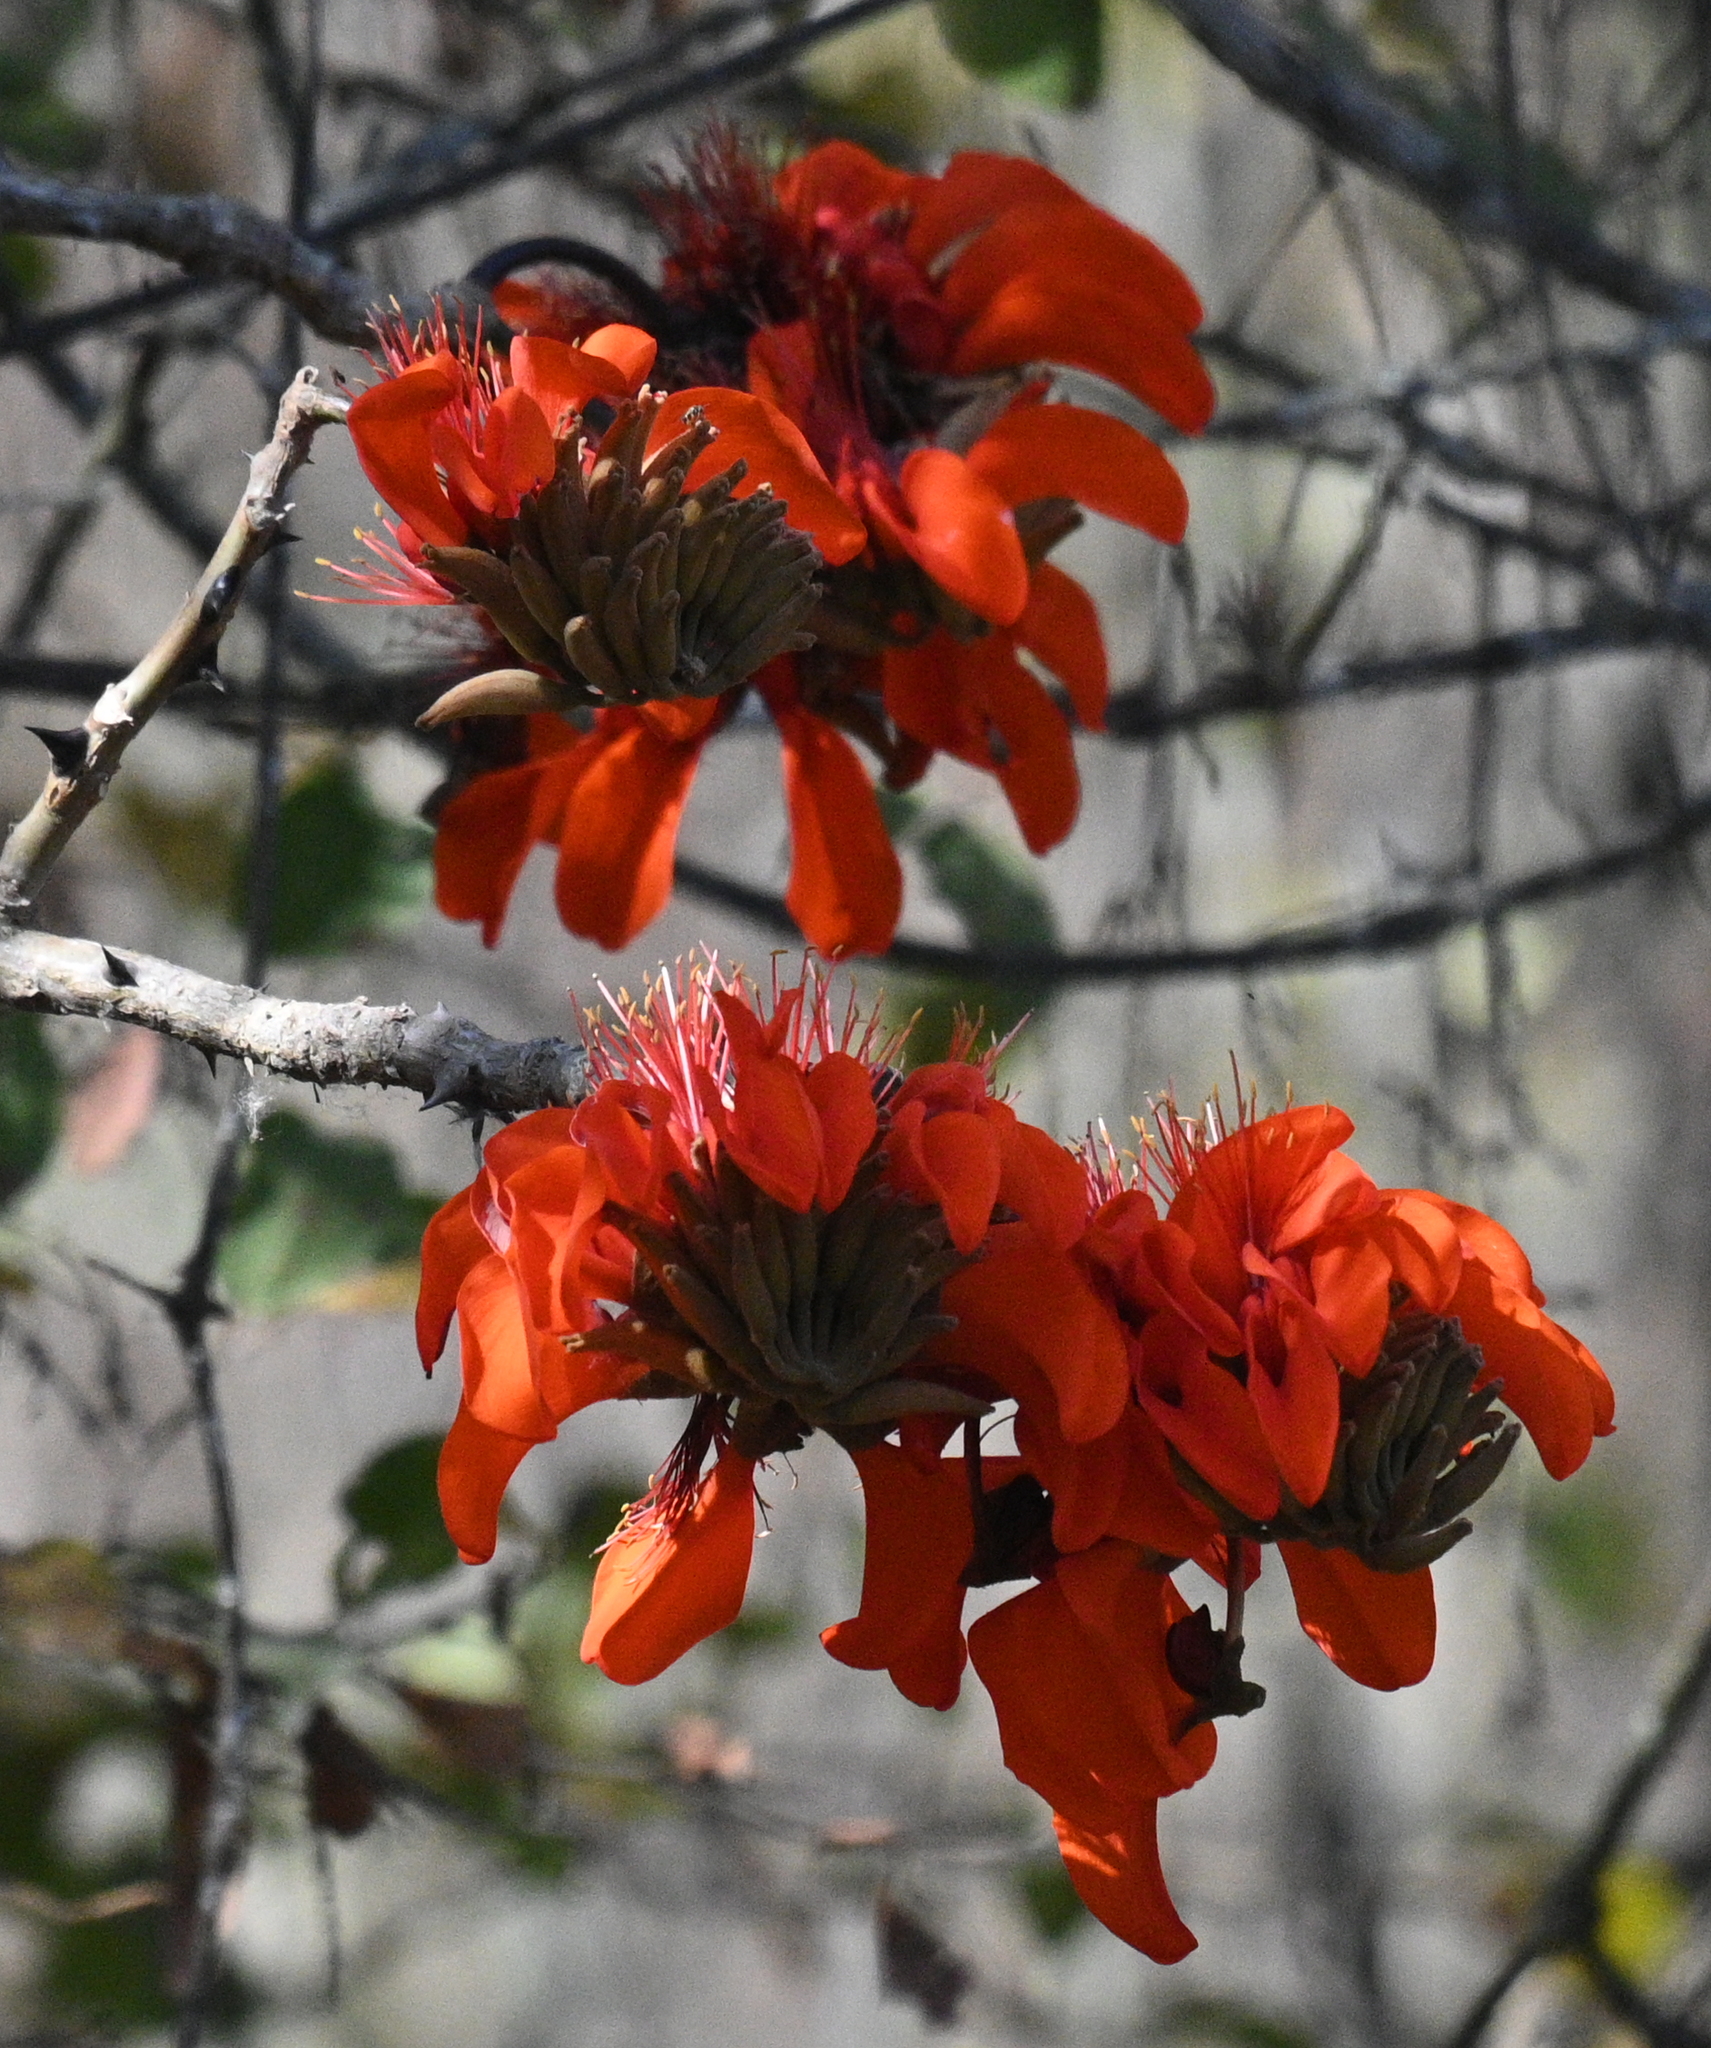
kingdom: Plantae
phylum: Tracheophyta
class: Magnoliopsida
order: Fabales
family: Fabaceae
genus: Erythrina
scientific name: Erythrina velutina
